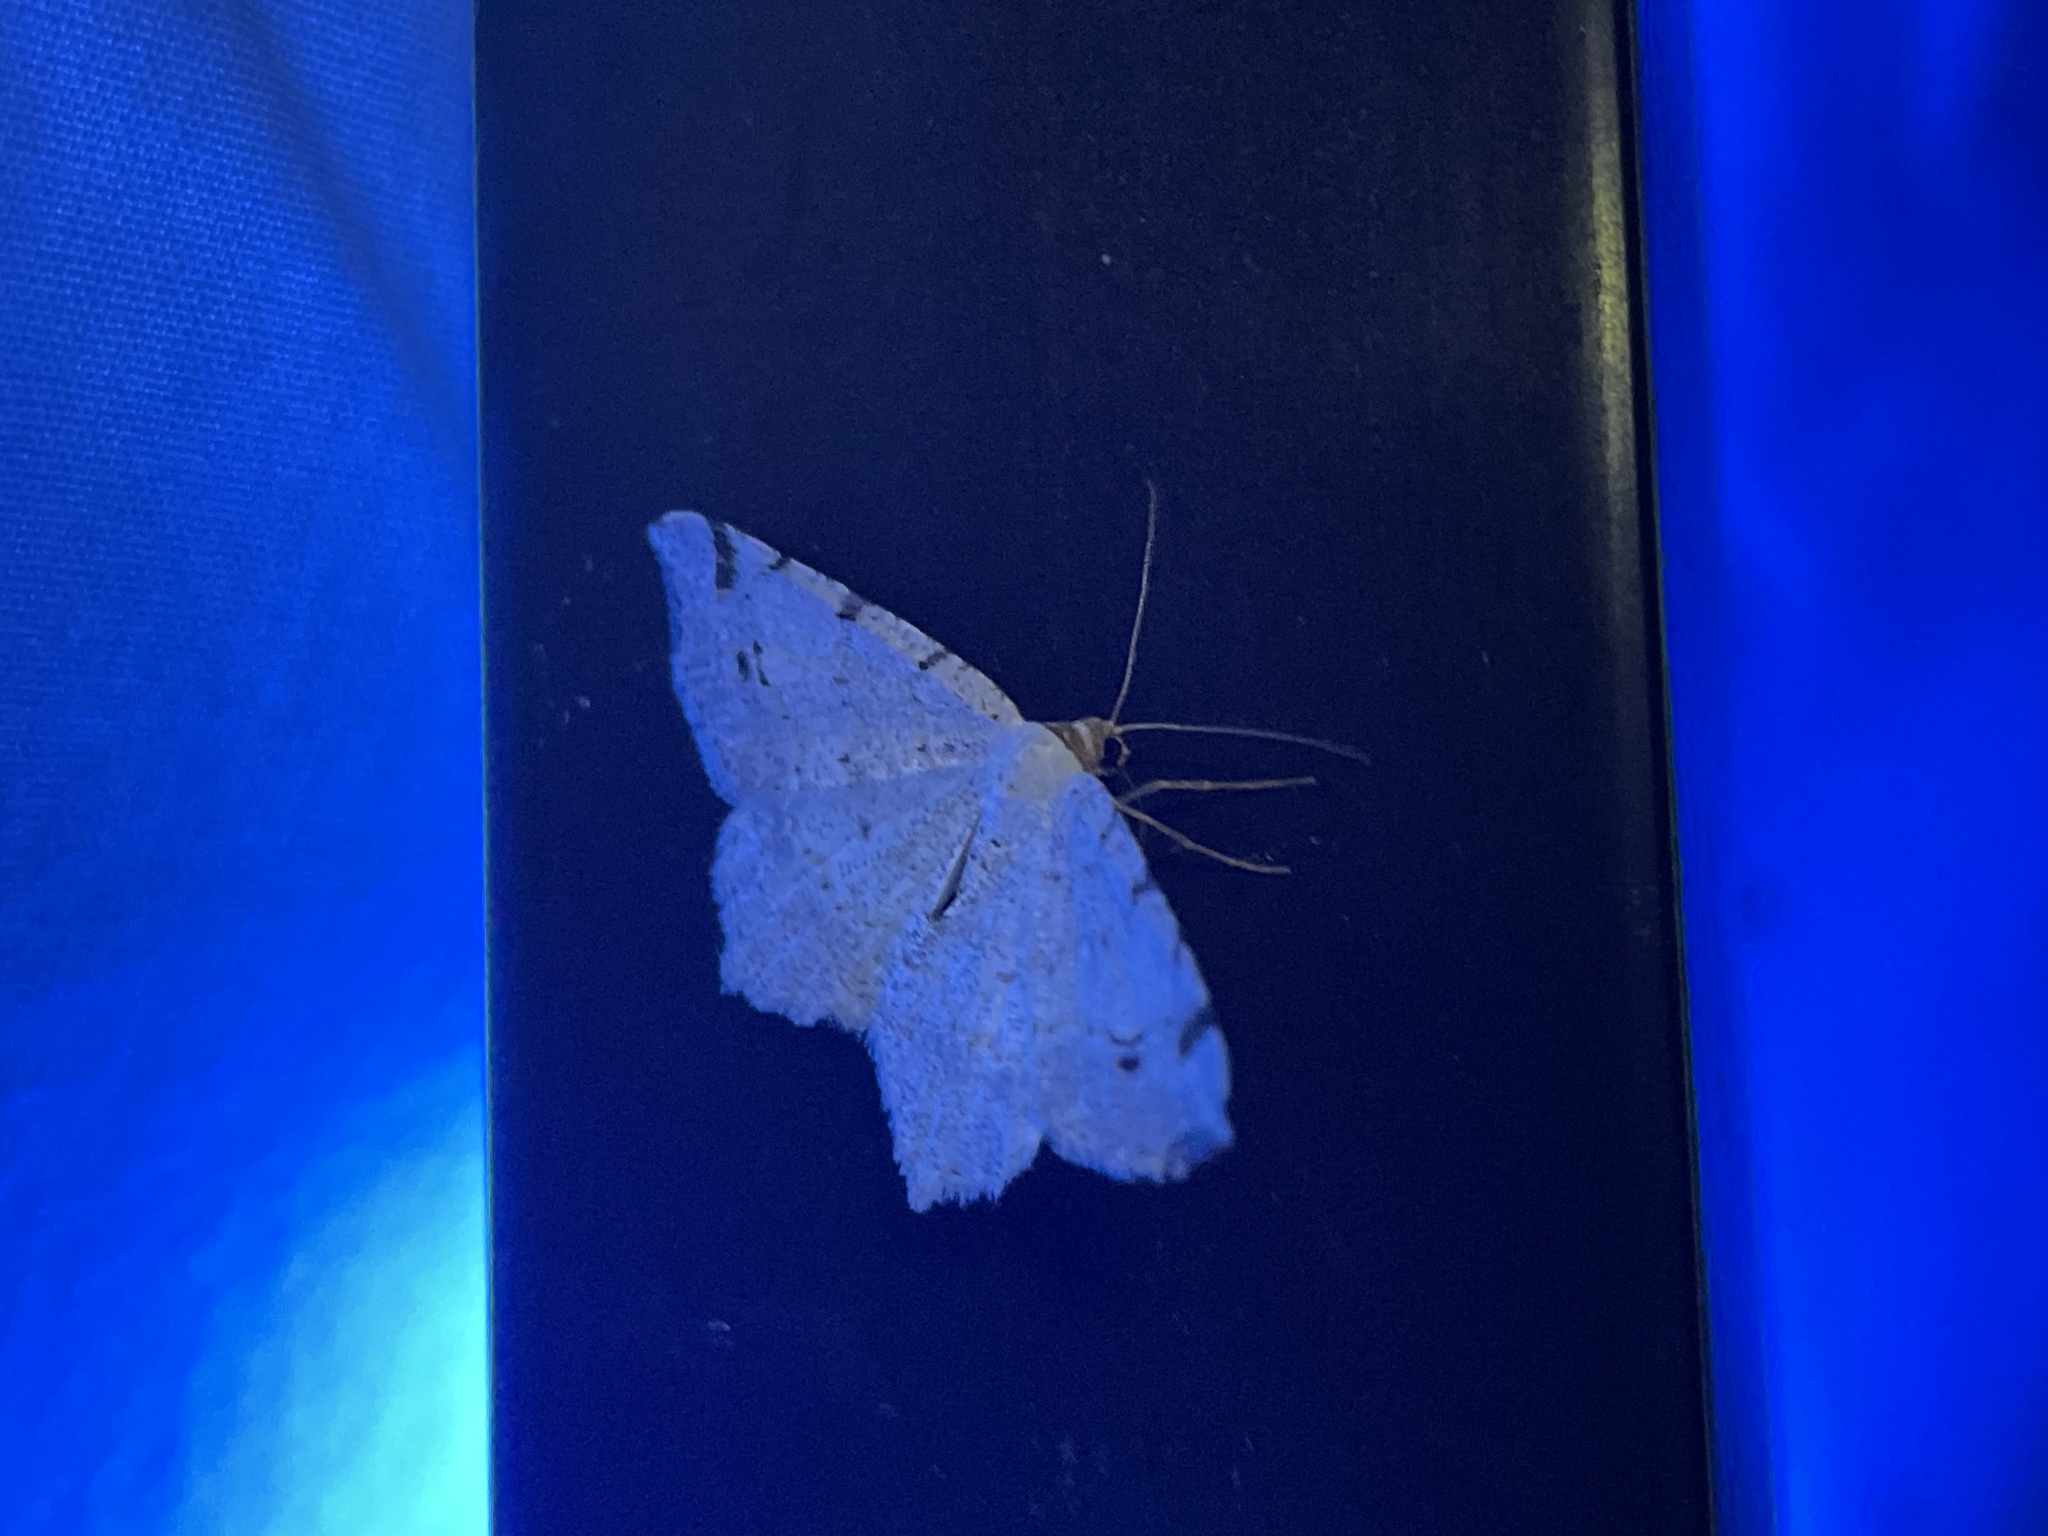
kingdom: Animalia
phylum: Arthropoda
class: Insecta
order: Lepidoptera
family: Geometridae
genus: Macaria
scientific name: Macaria bisignata
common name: Red-headed inchworm
